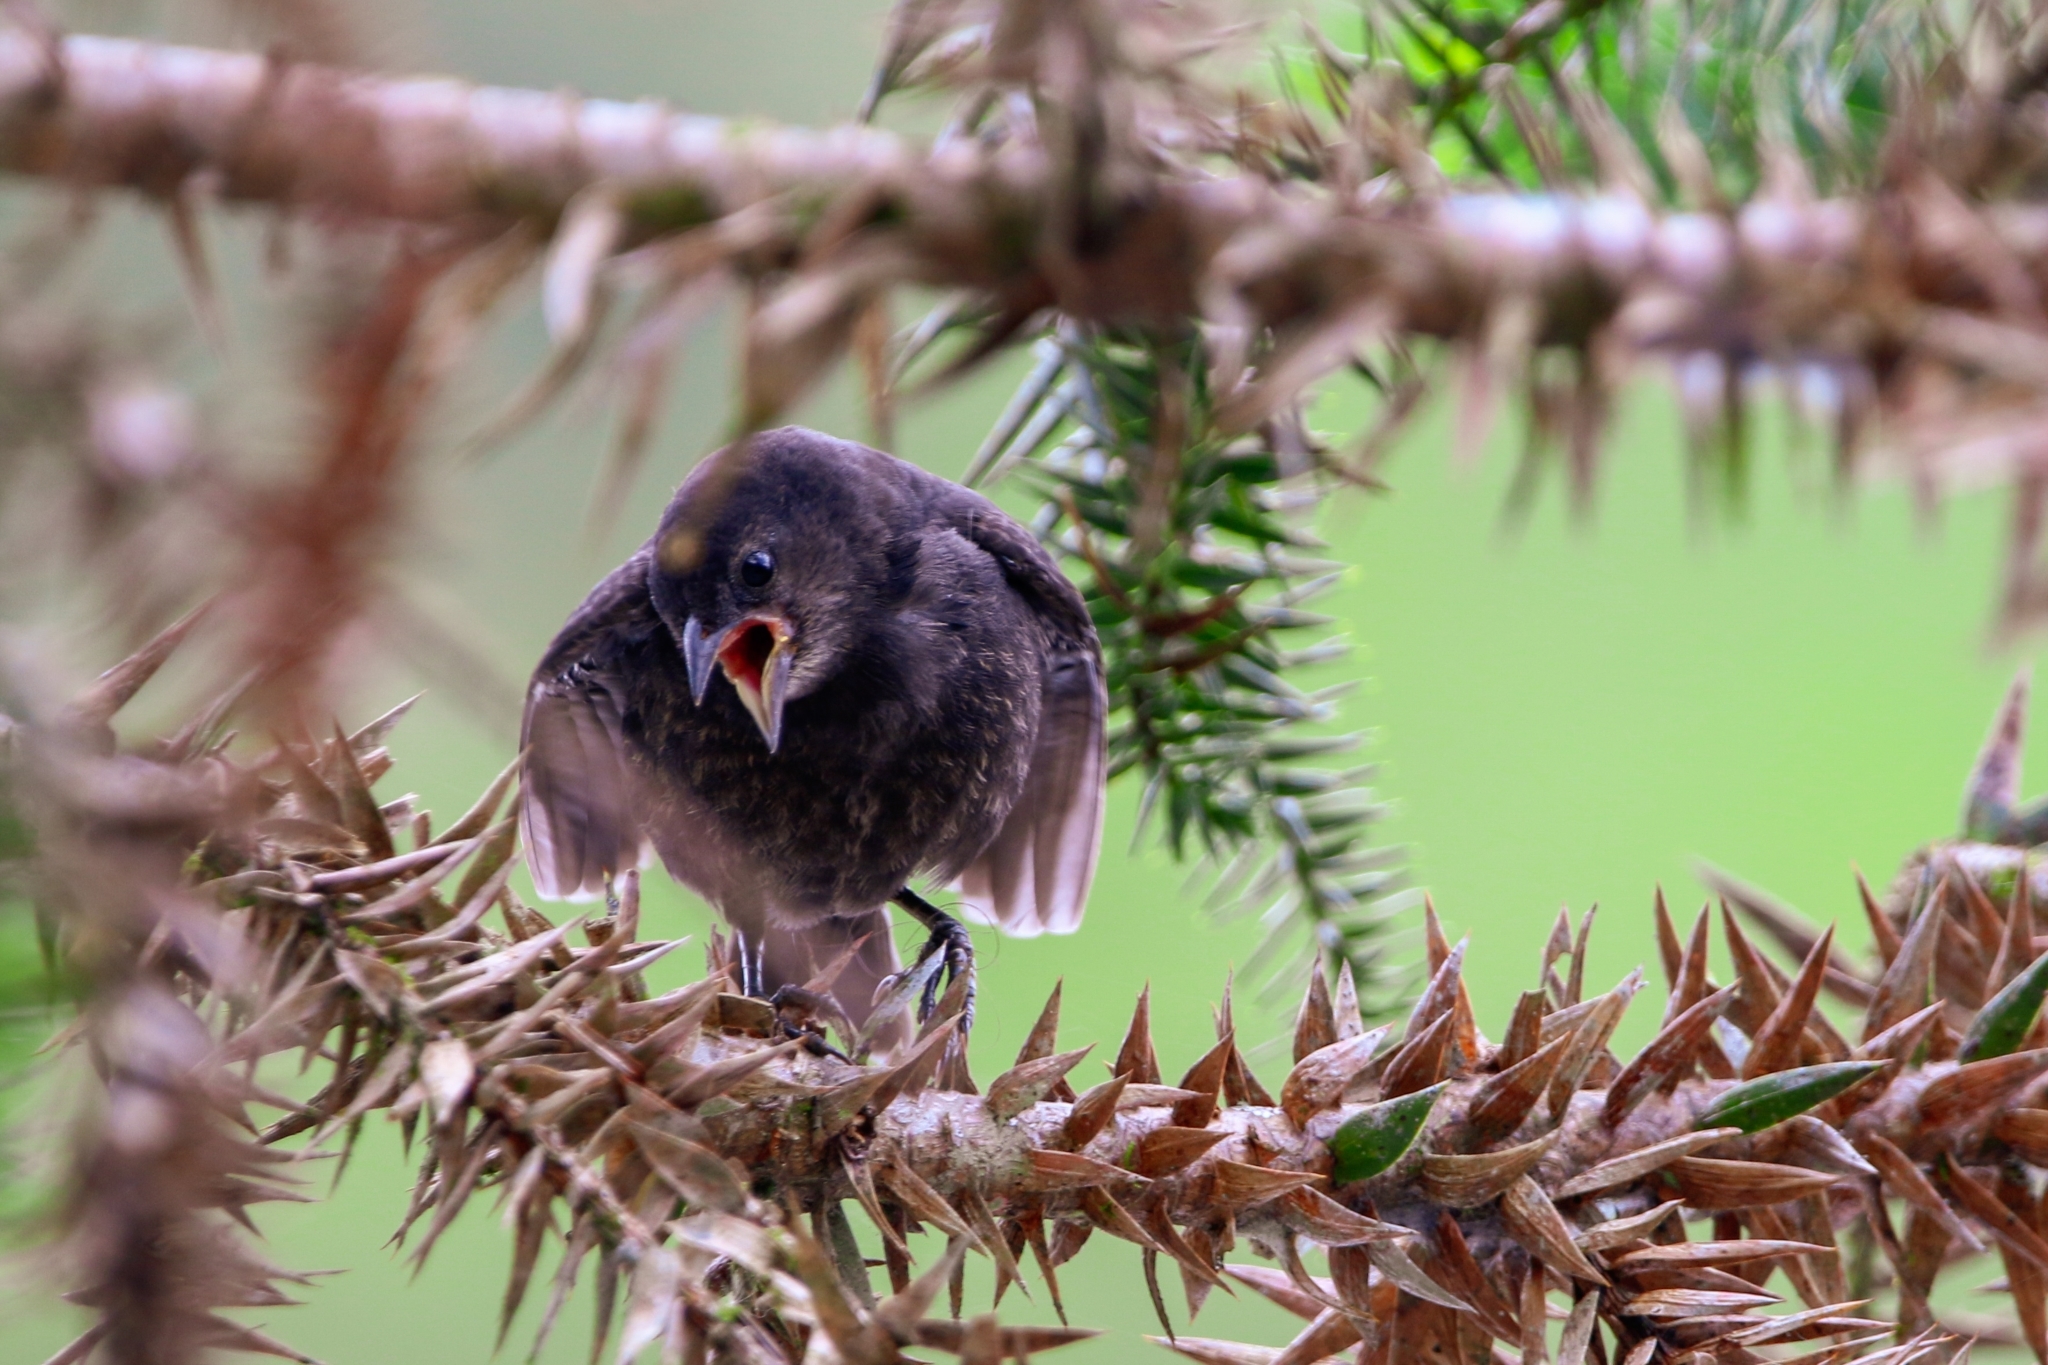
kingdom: Animalia
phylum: Chordata
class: Aves
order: Passeriformes
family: Icteridae
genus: Molothrus
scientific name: Molothrus bonariensis
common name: Shiny cowbird
